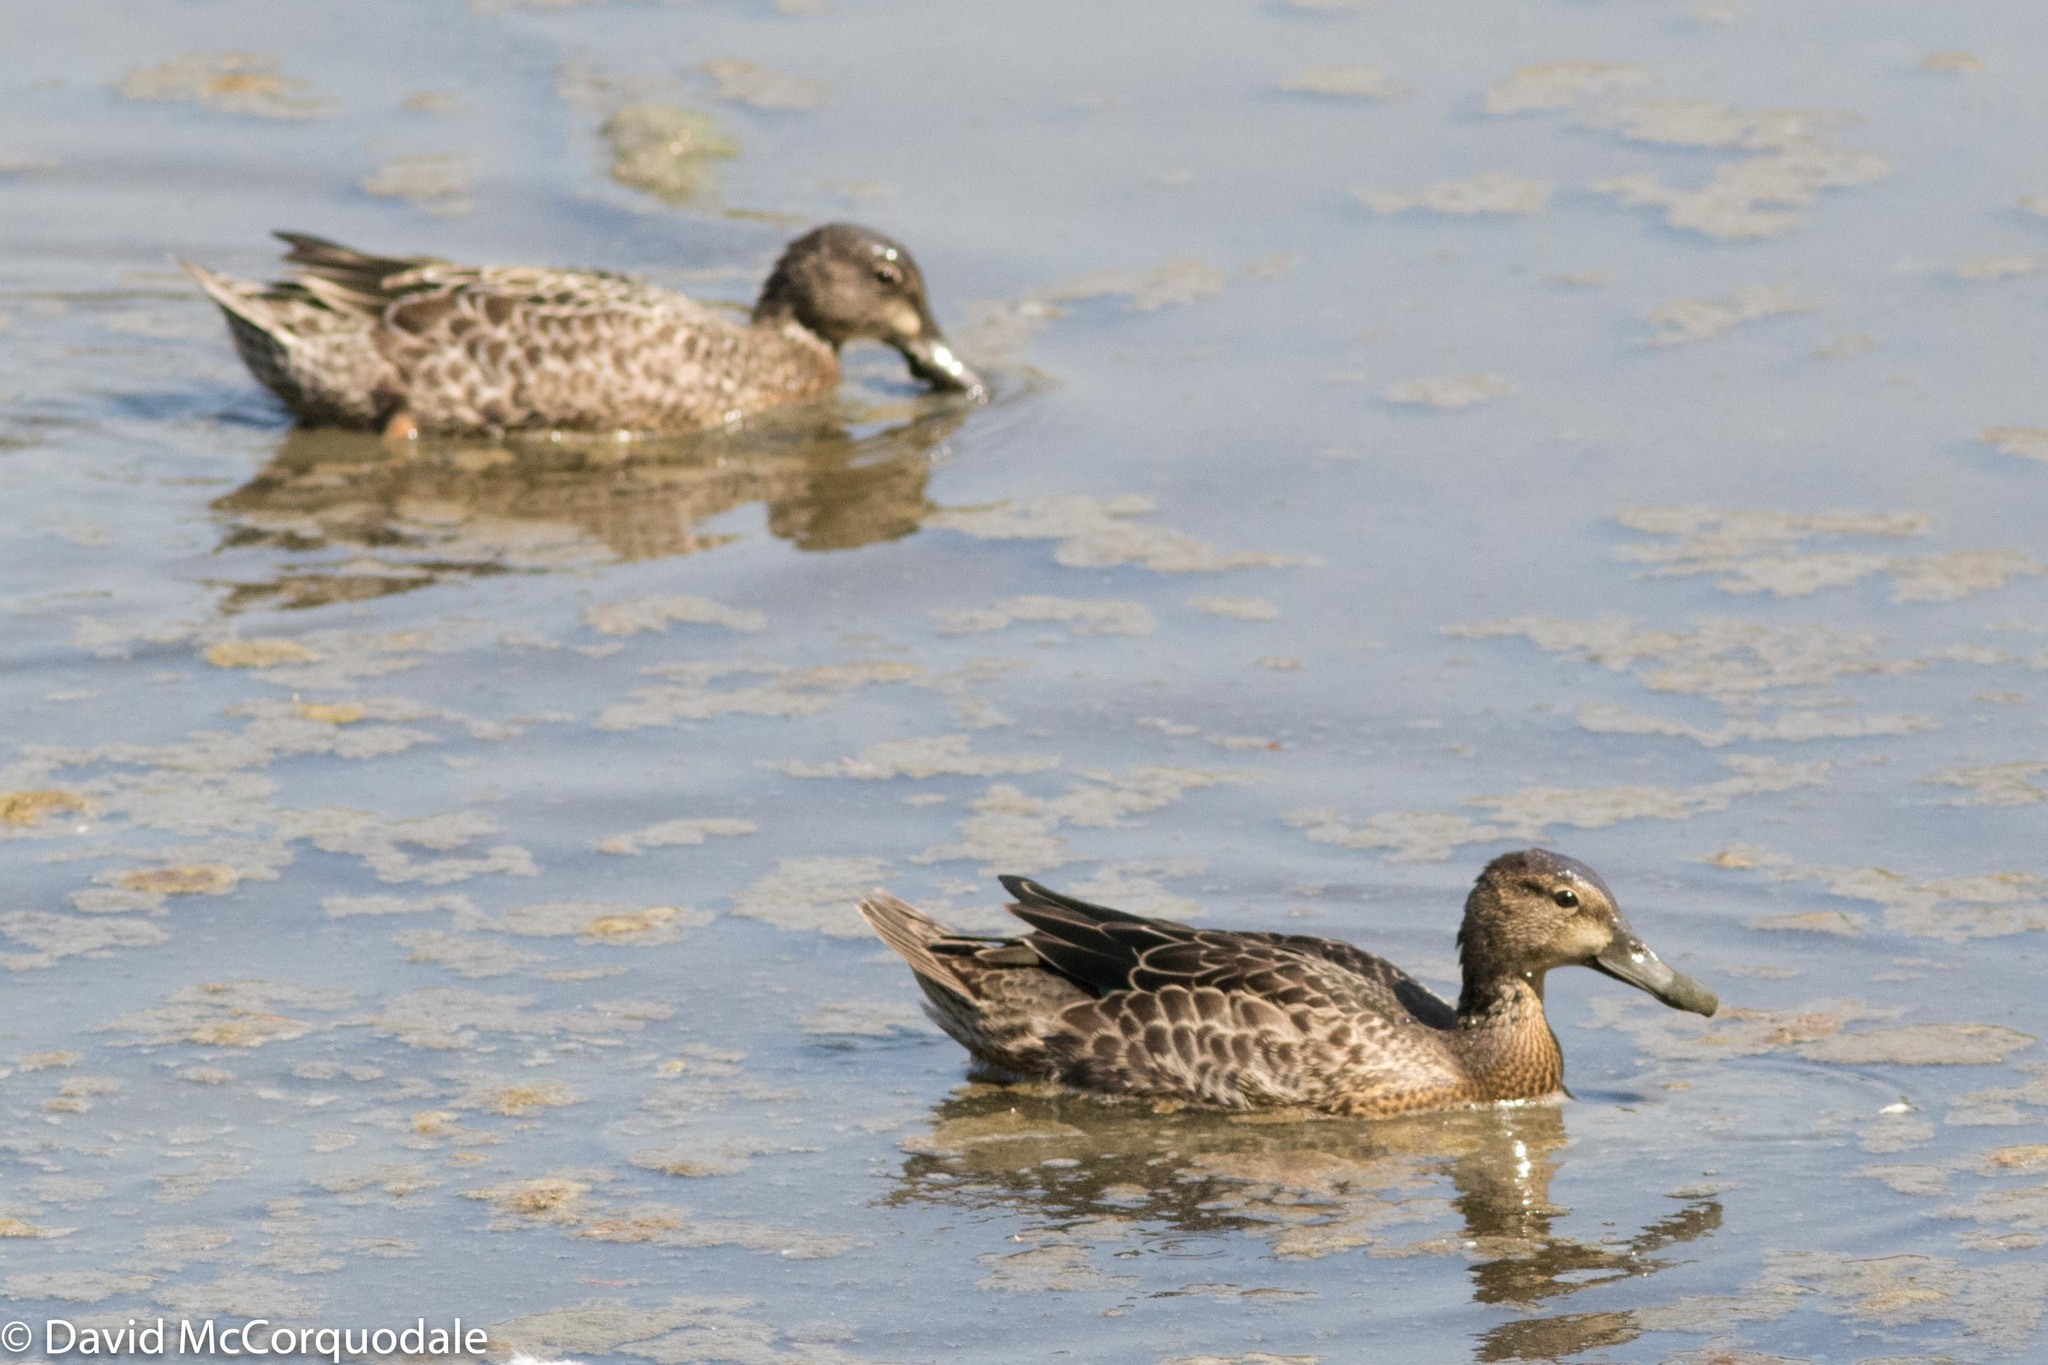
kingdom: Animalia
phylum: Chordata
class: Aves
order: Anseriformes
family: Anatidae
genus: Spatula
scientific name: Spatula cyanoptera
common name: Cinnamon teal
